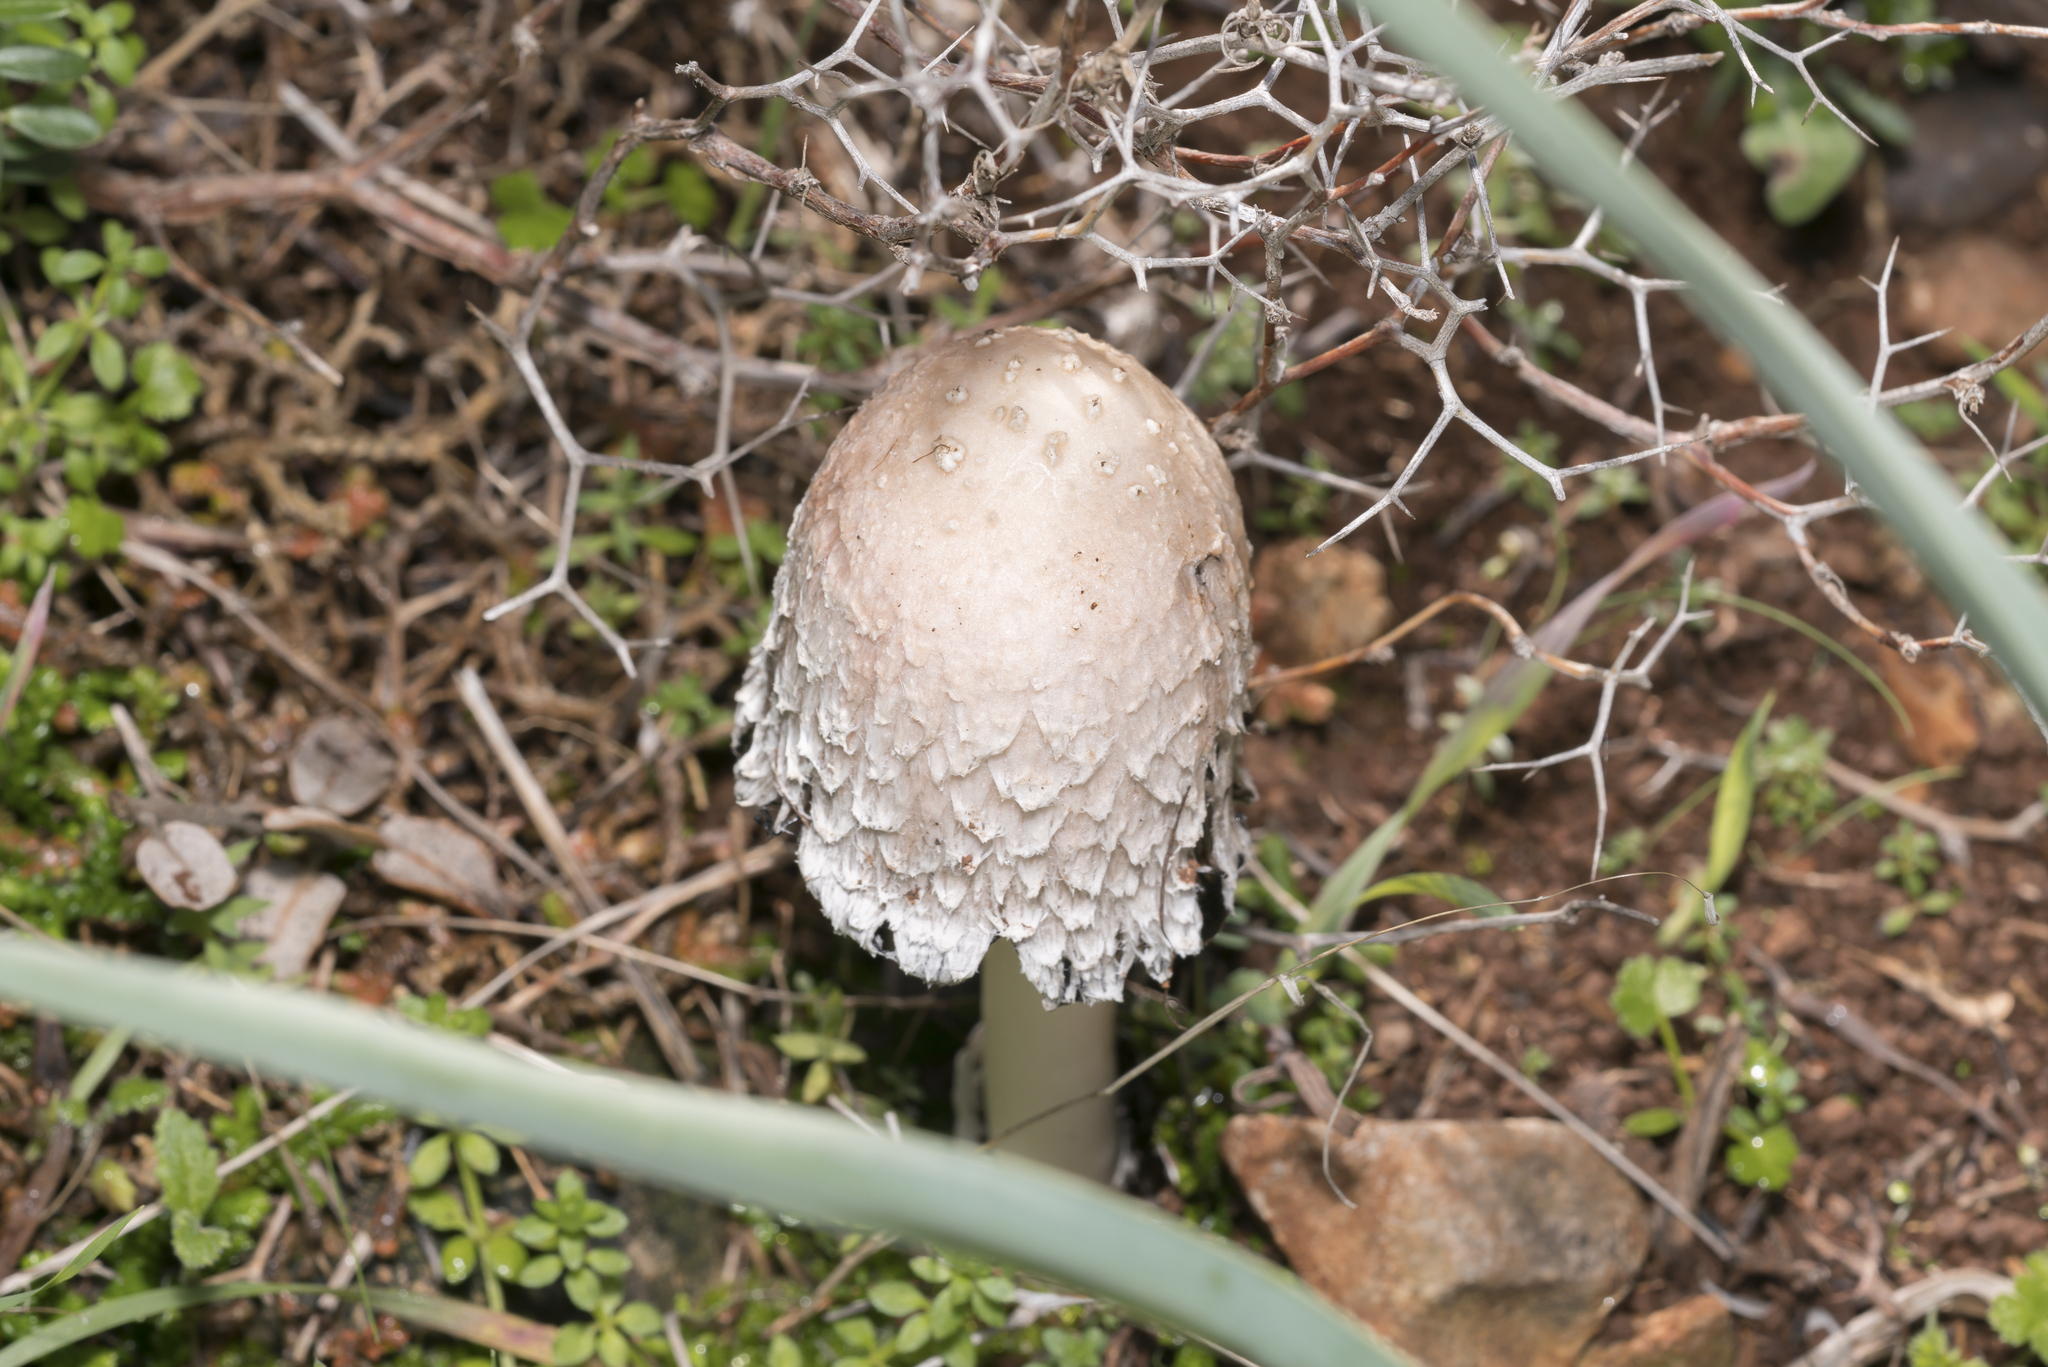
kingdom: Fungi
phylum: Basidiomycota
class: Agaricomycetes
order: Agaricales
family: Agaricaceae
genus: Coprinus
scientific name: Coprinus comatus
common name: Lawyer's wig
